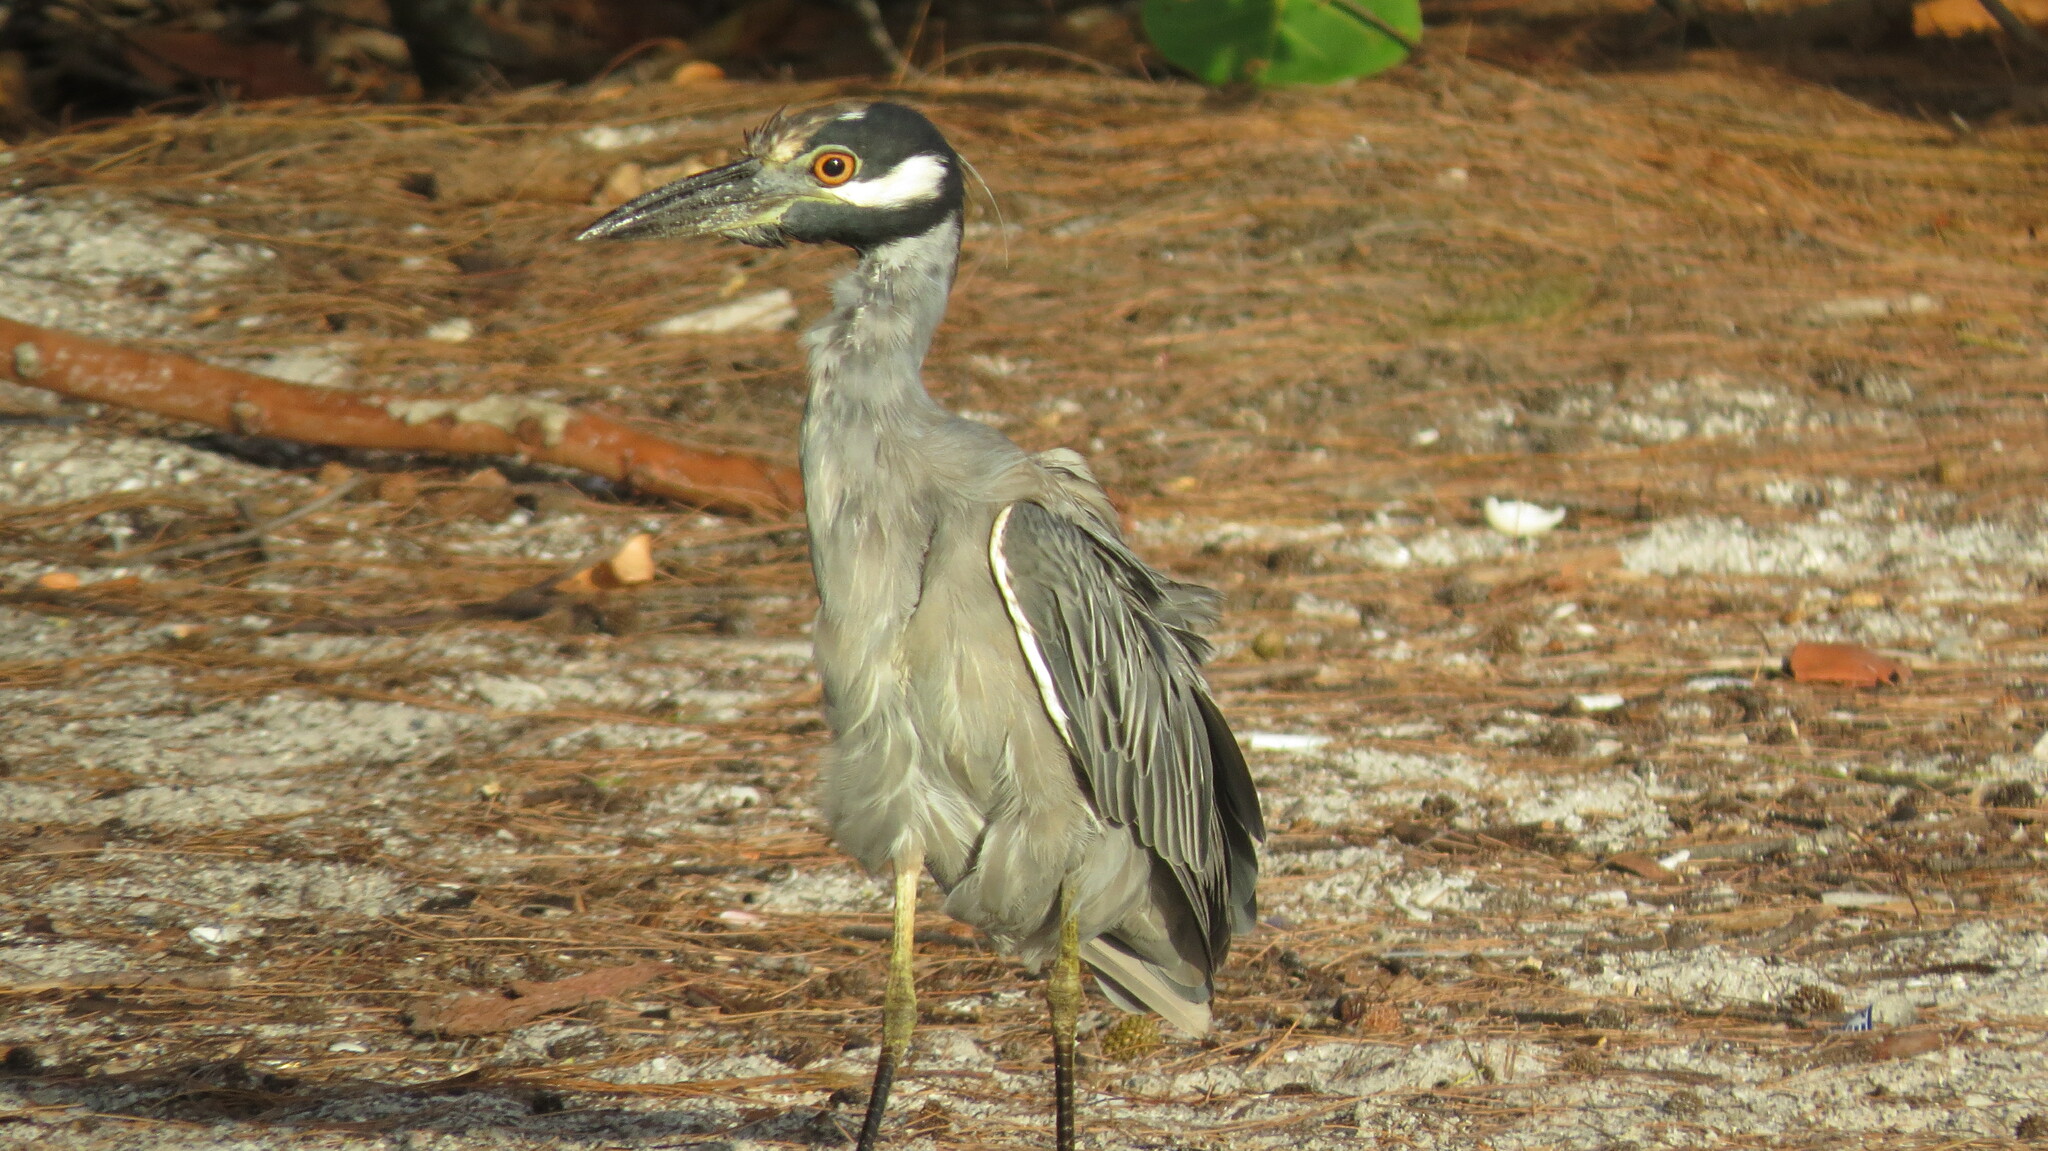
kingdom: Animalia
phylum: Chordata
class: Aves
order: Pelecaniformes
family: Ardeidae
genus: Nyctanassa
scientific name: Nyctanassa violacea
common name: Yellow-crowned night heron
